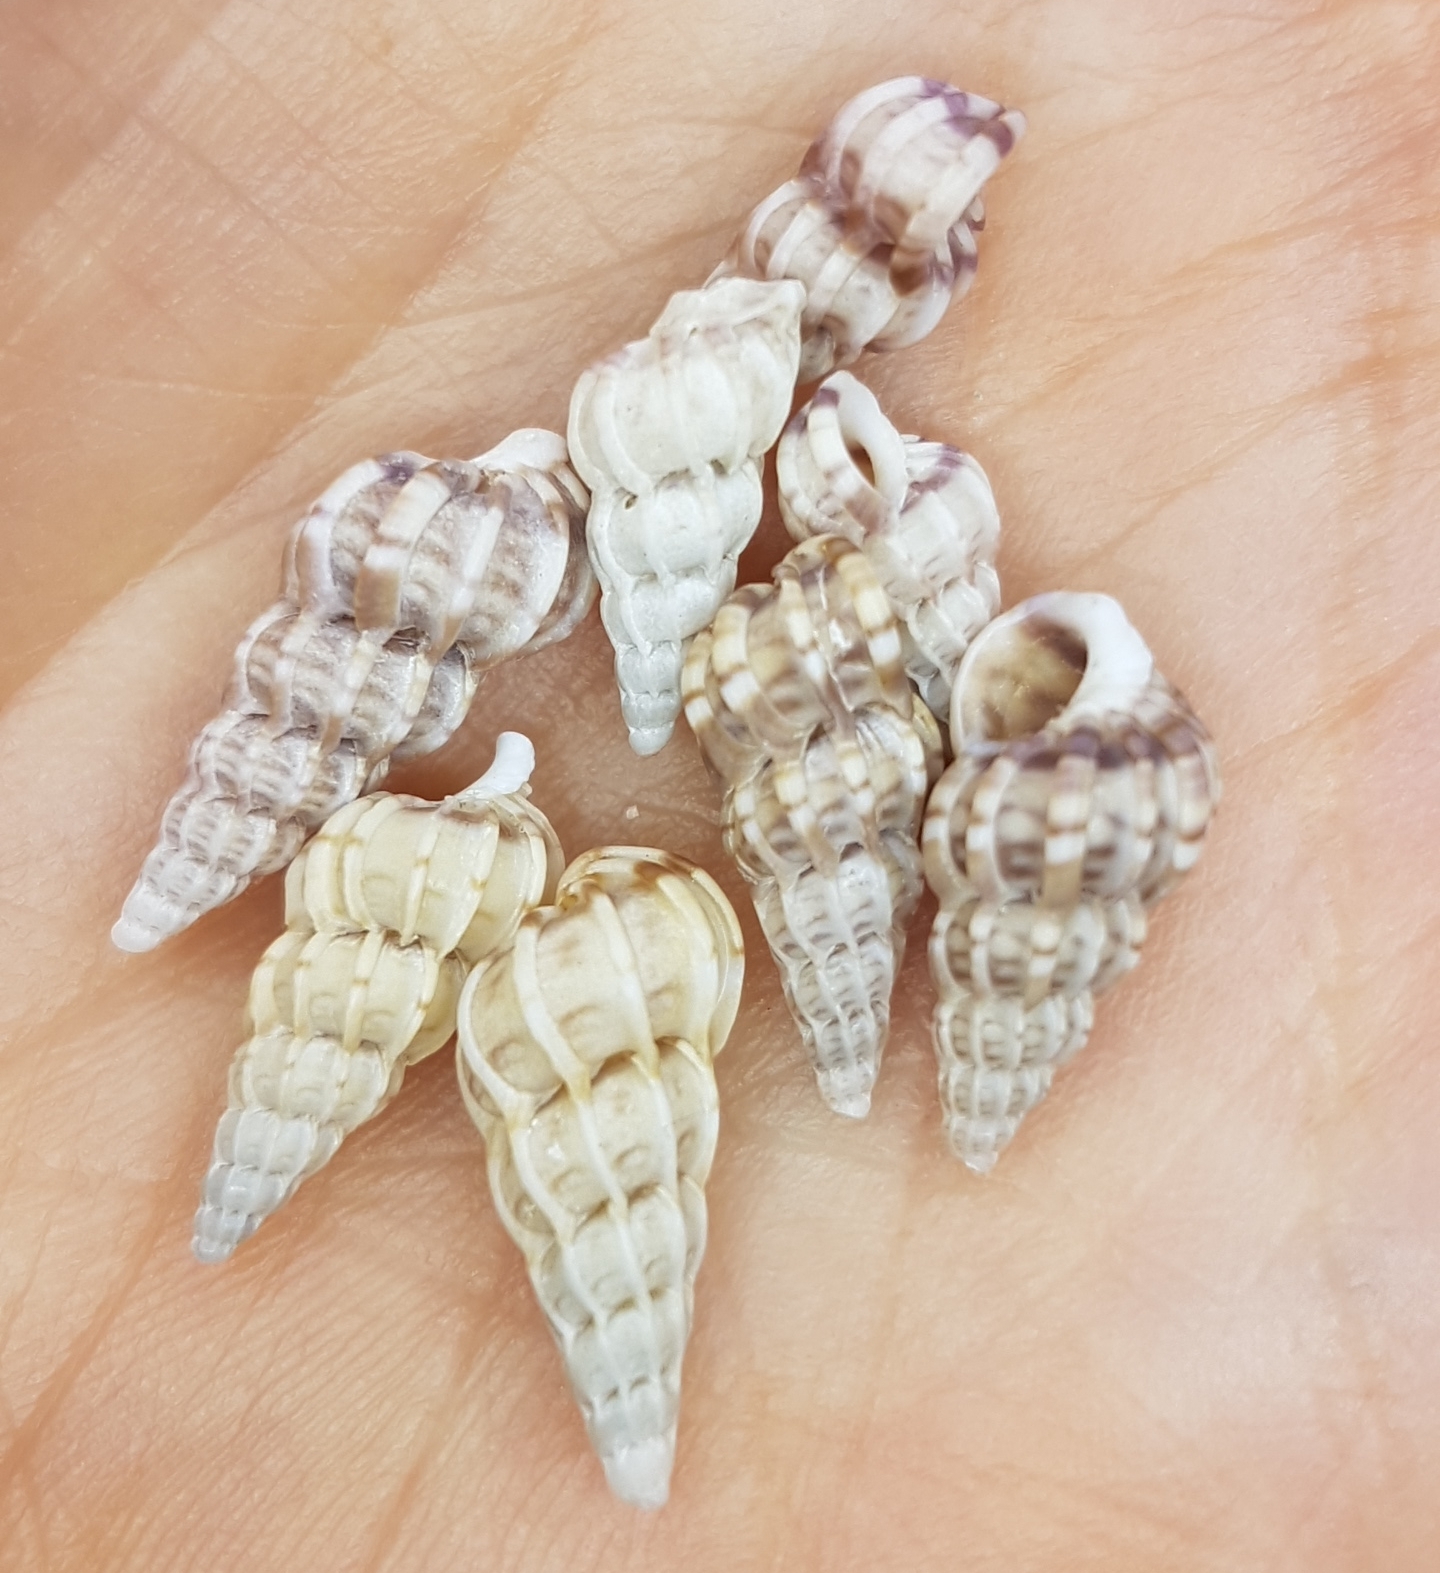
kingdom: Animalia
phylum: Mollusca
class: Gastropoda
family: Epitoniidae
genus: Epitonium
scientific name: Epitonium clathrus
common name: Common wentletrap
